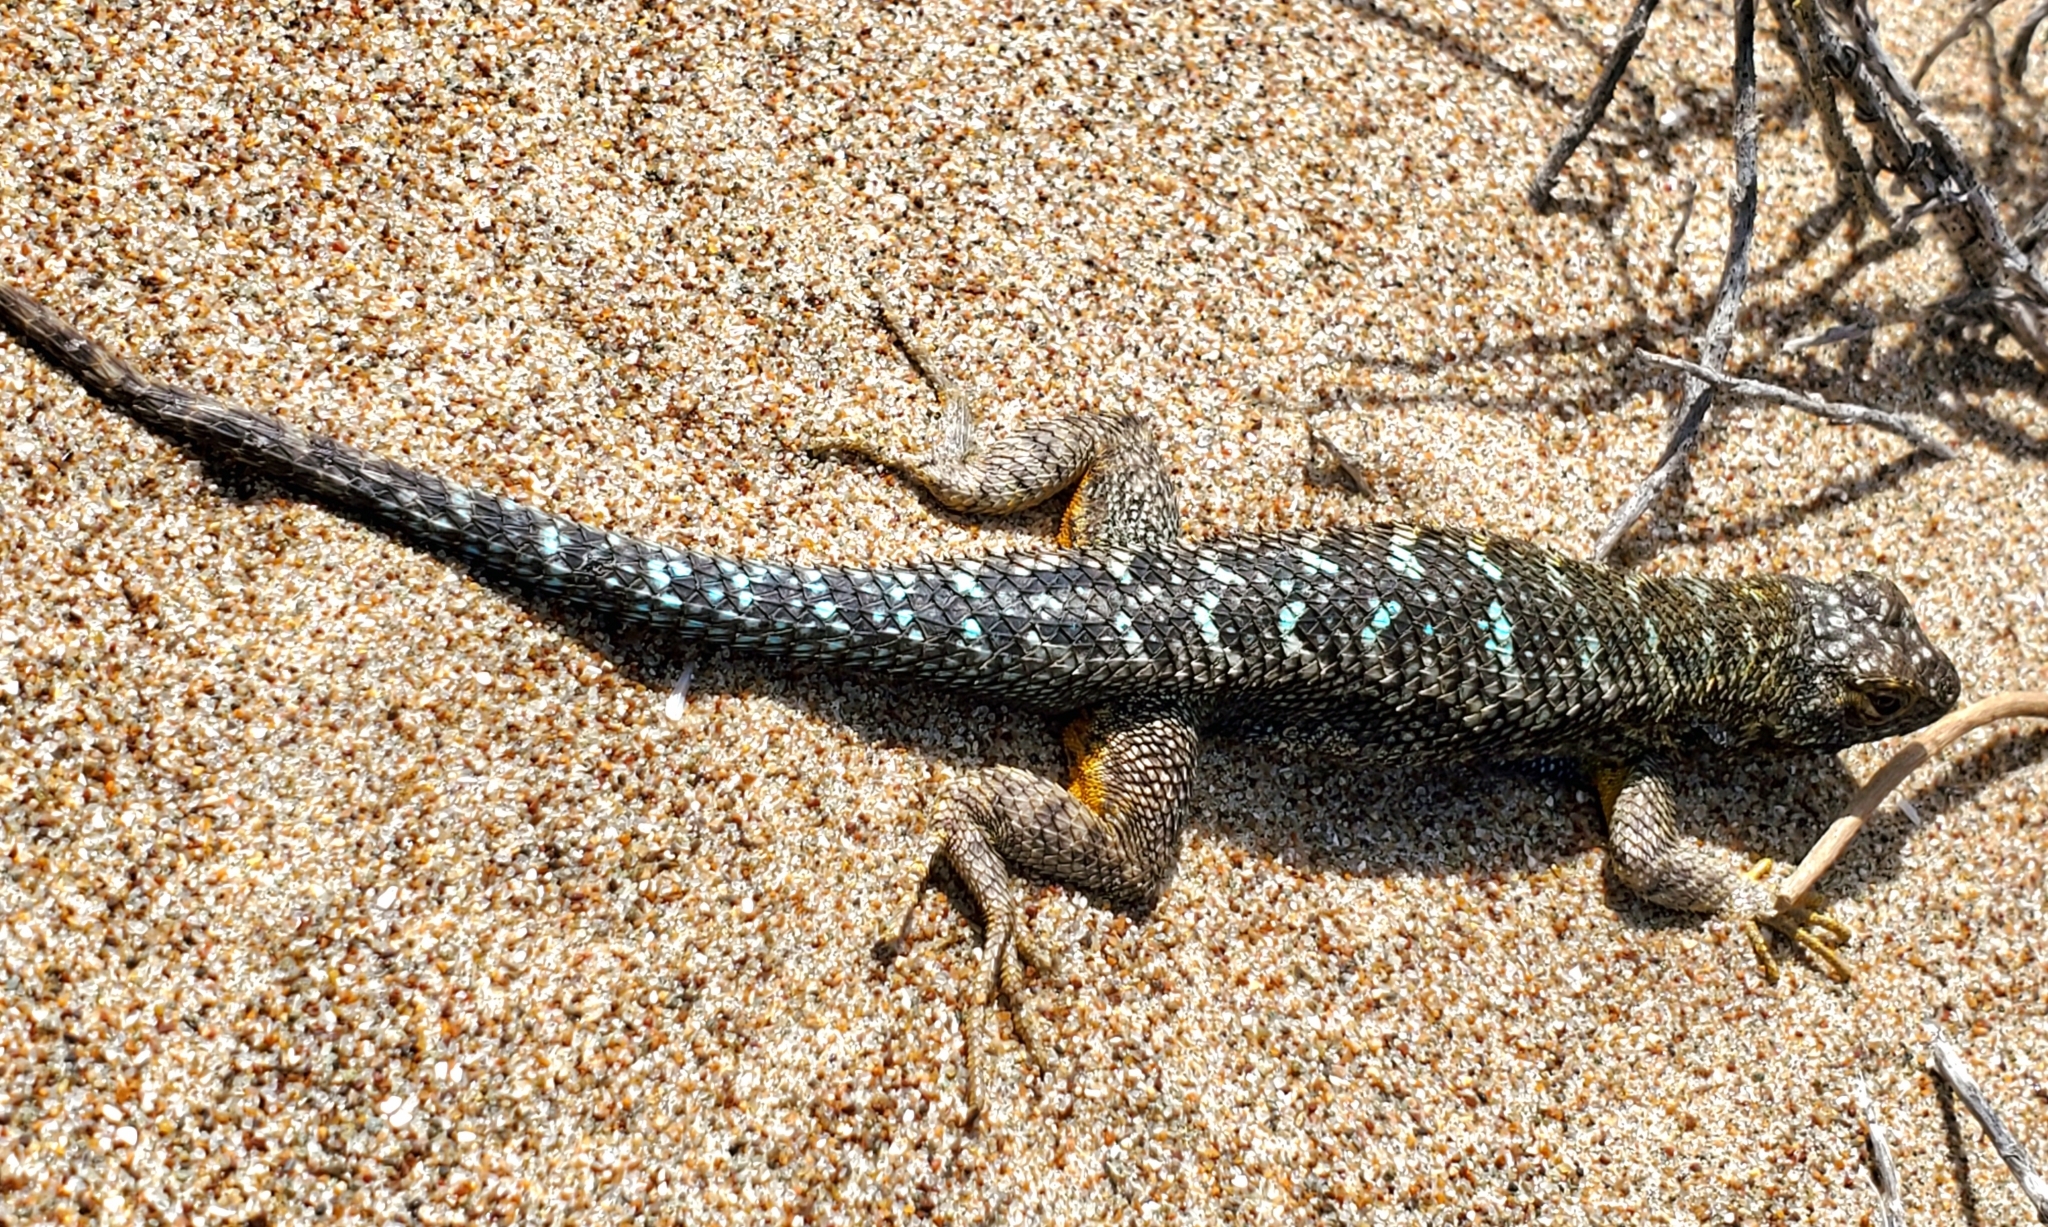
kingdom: Animalia
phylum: Chordata
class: Squamata
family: Phrynosomatidae
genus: Sceloporus
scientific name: Sceloporus occidentalis
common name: Western fence lizard
